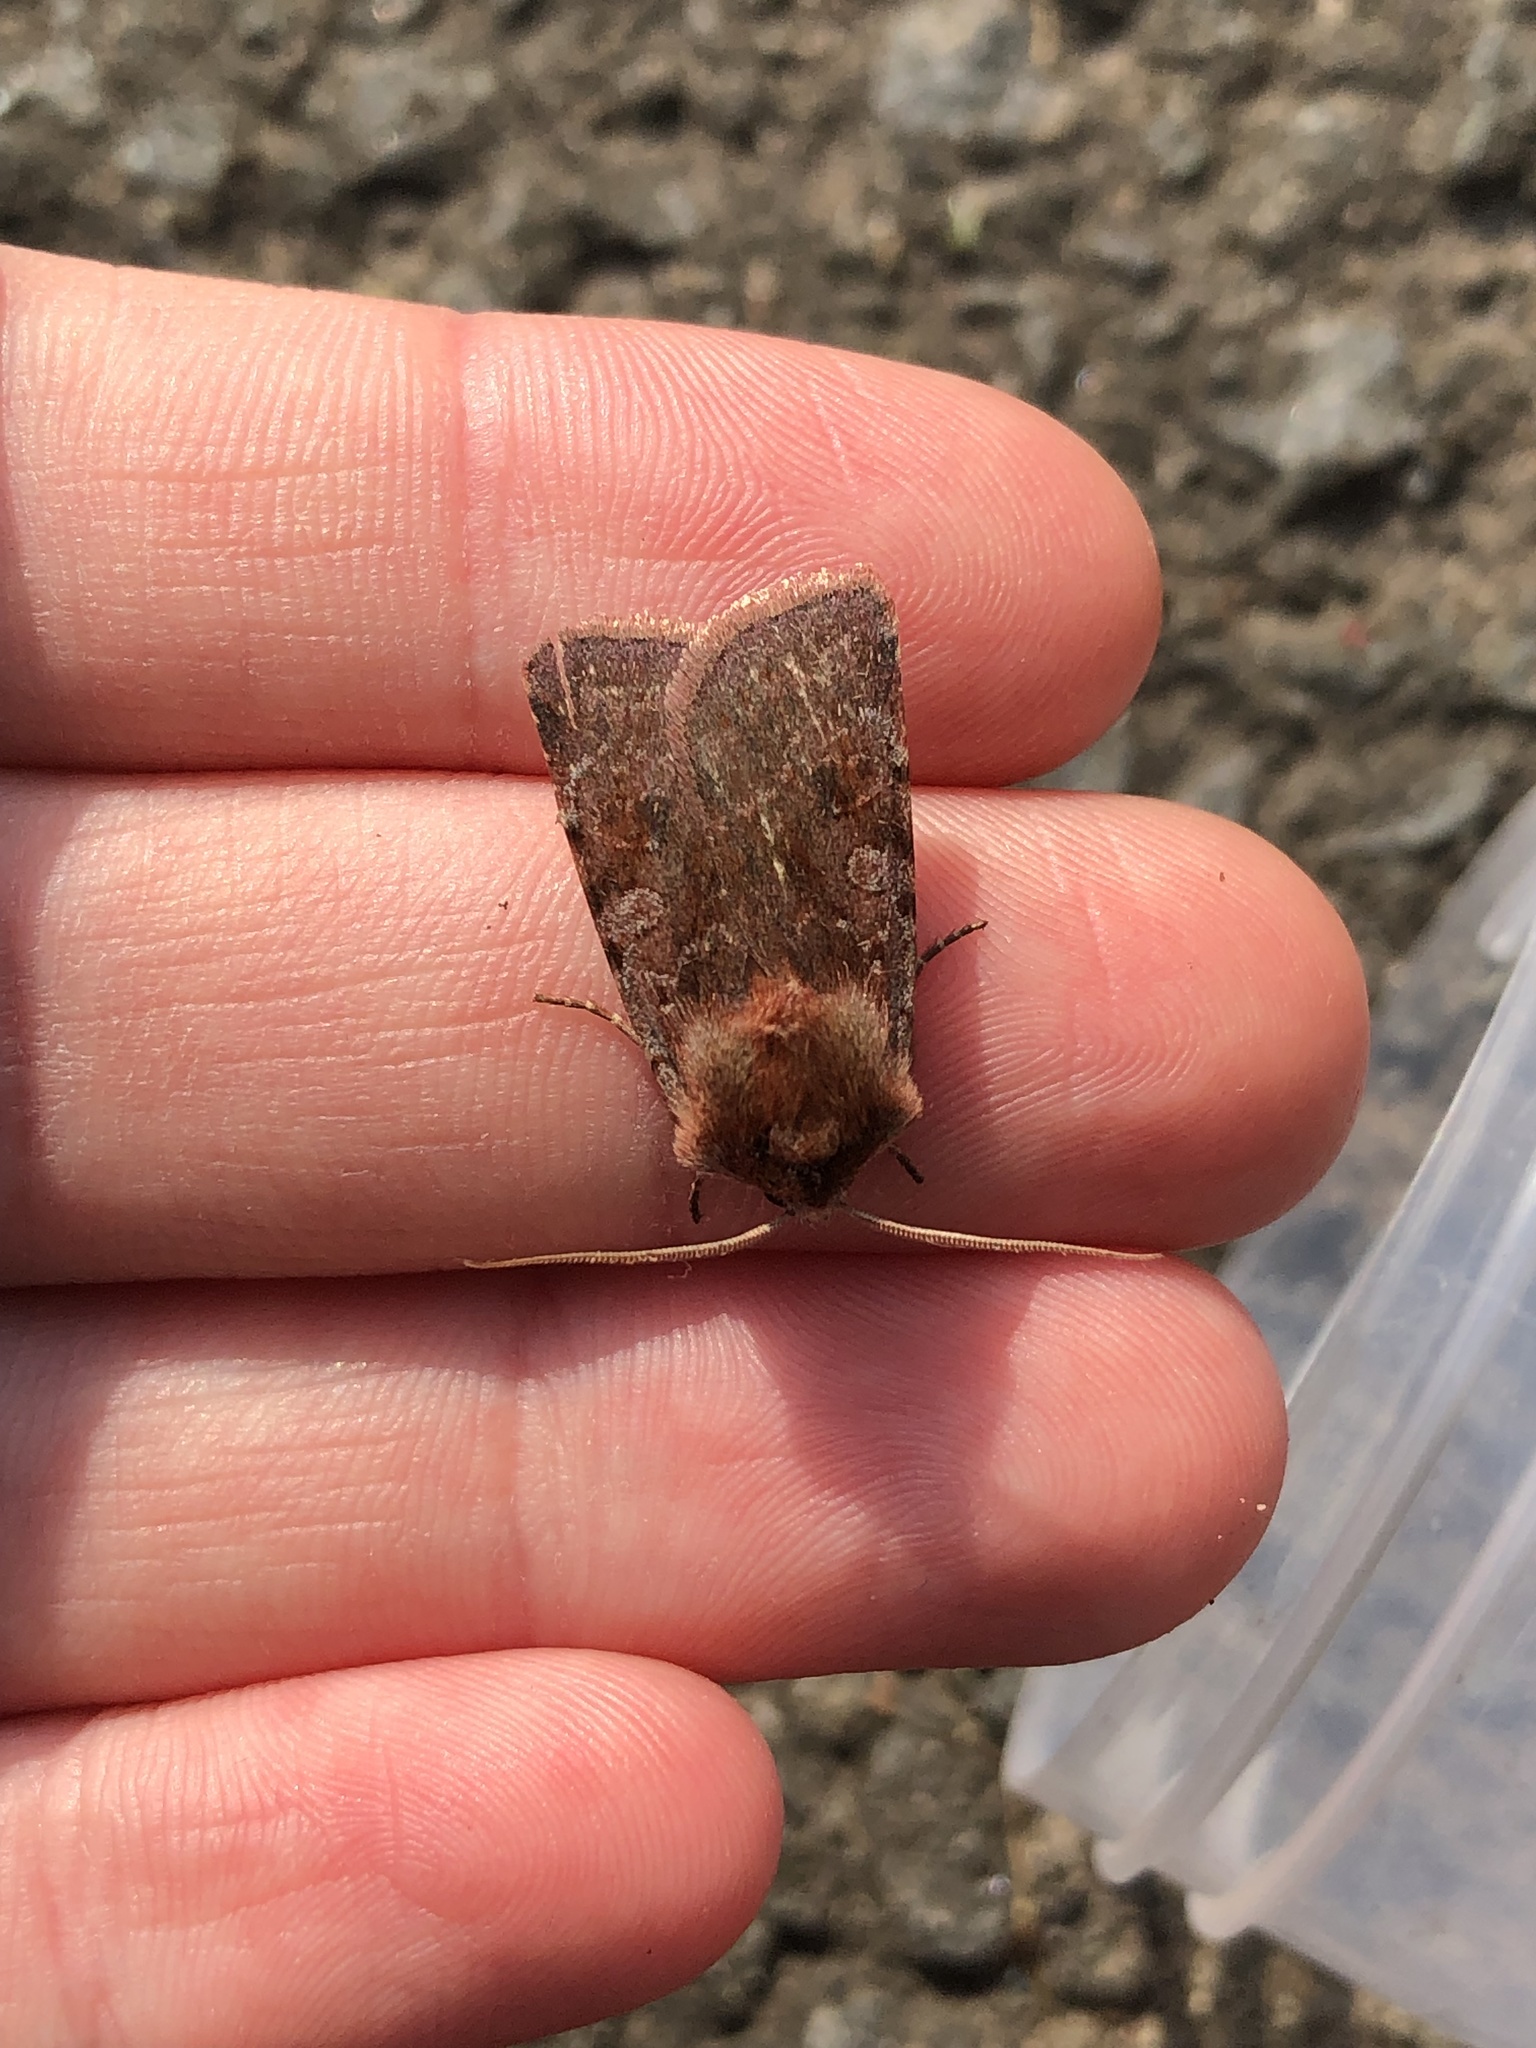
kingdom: Animalia
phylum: Arthropoda
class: Insecta
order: Lepidoptera
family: Noctuidae
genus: Conistra
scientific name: Conistra vaccinii
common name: Chestnut
